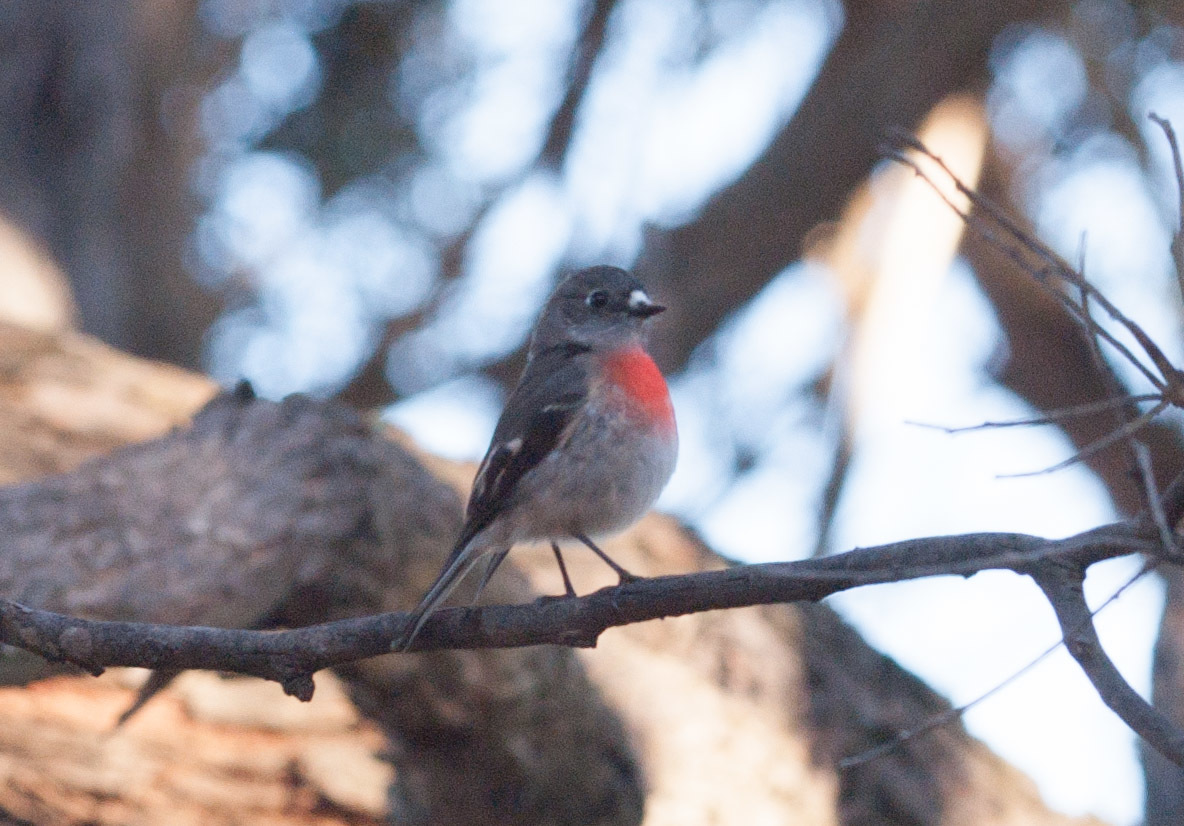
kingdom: Animalia
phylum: Chordata
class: Aves
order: Passeriformes
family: Petroicidae
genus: Petroica
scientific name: Petroica boodang
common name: Scarlet robin
